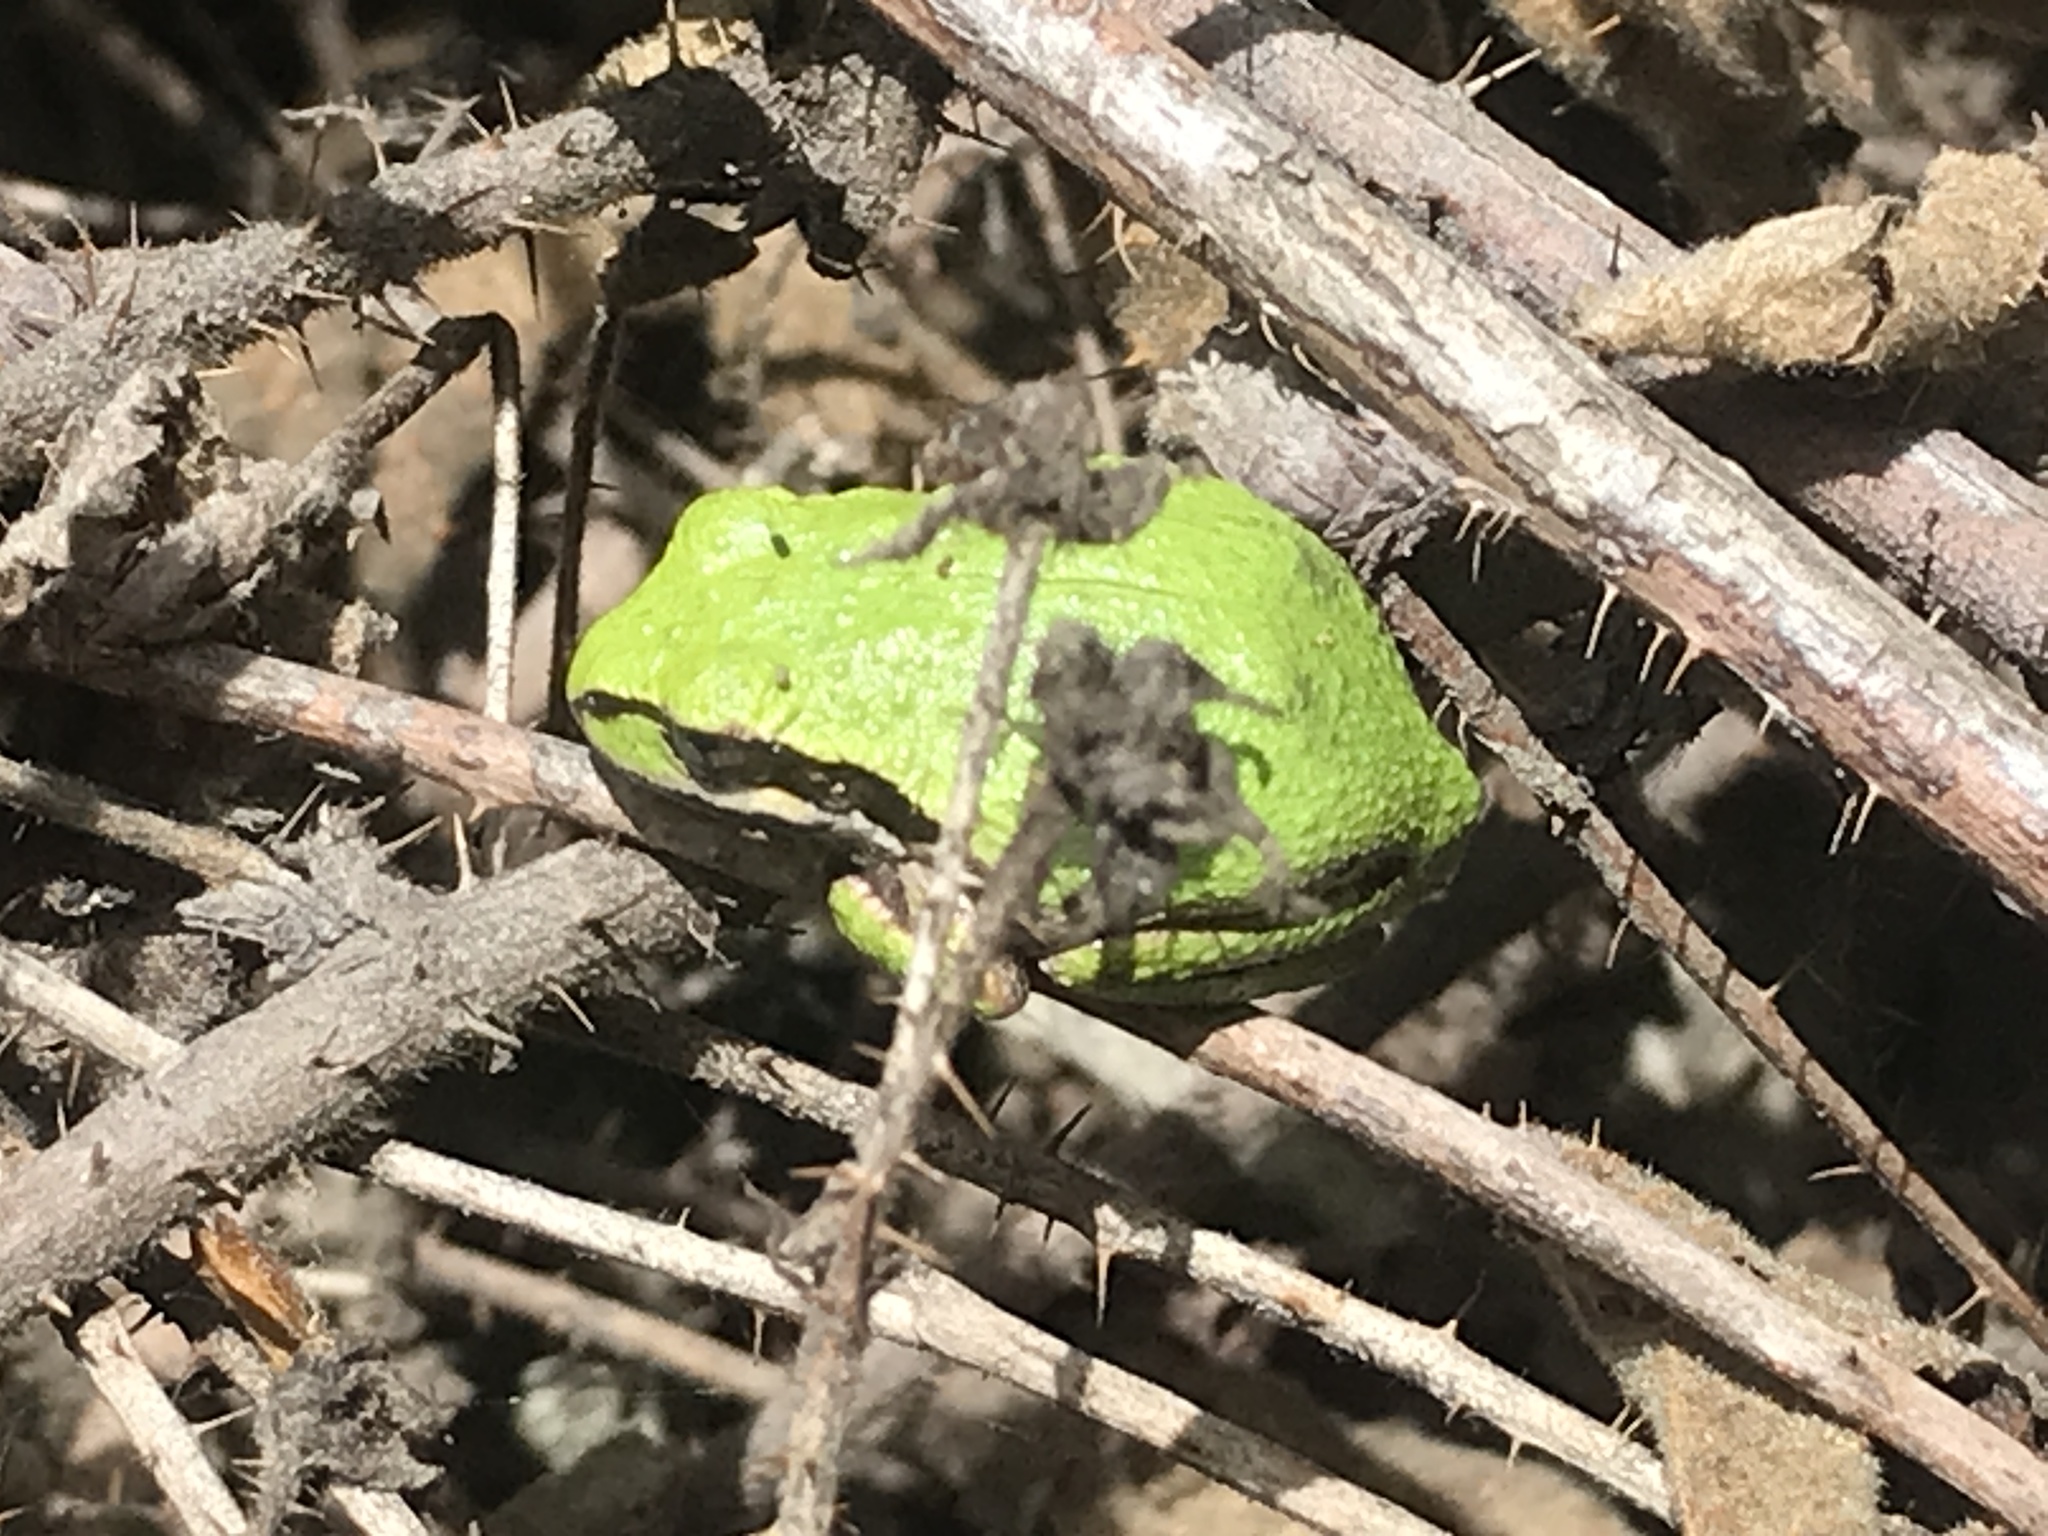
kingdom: Animalia
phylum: Chordata
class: Amphibia
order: Anura
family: Hylidae
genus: Pseudacris
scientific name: Pseudacris regilla
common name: Pacific chorus frog
